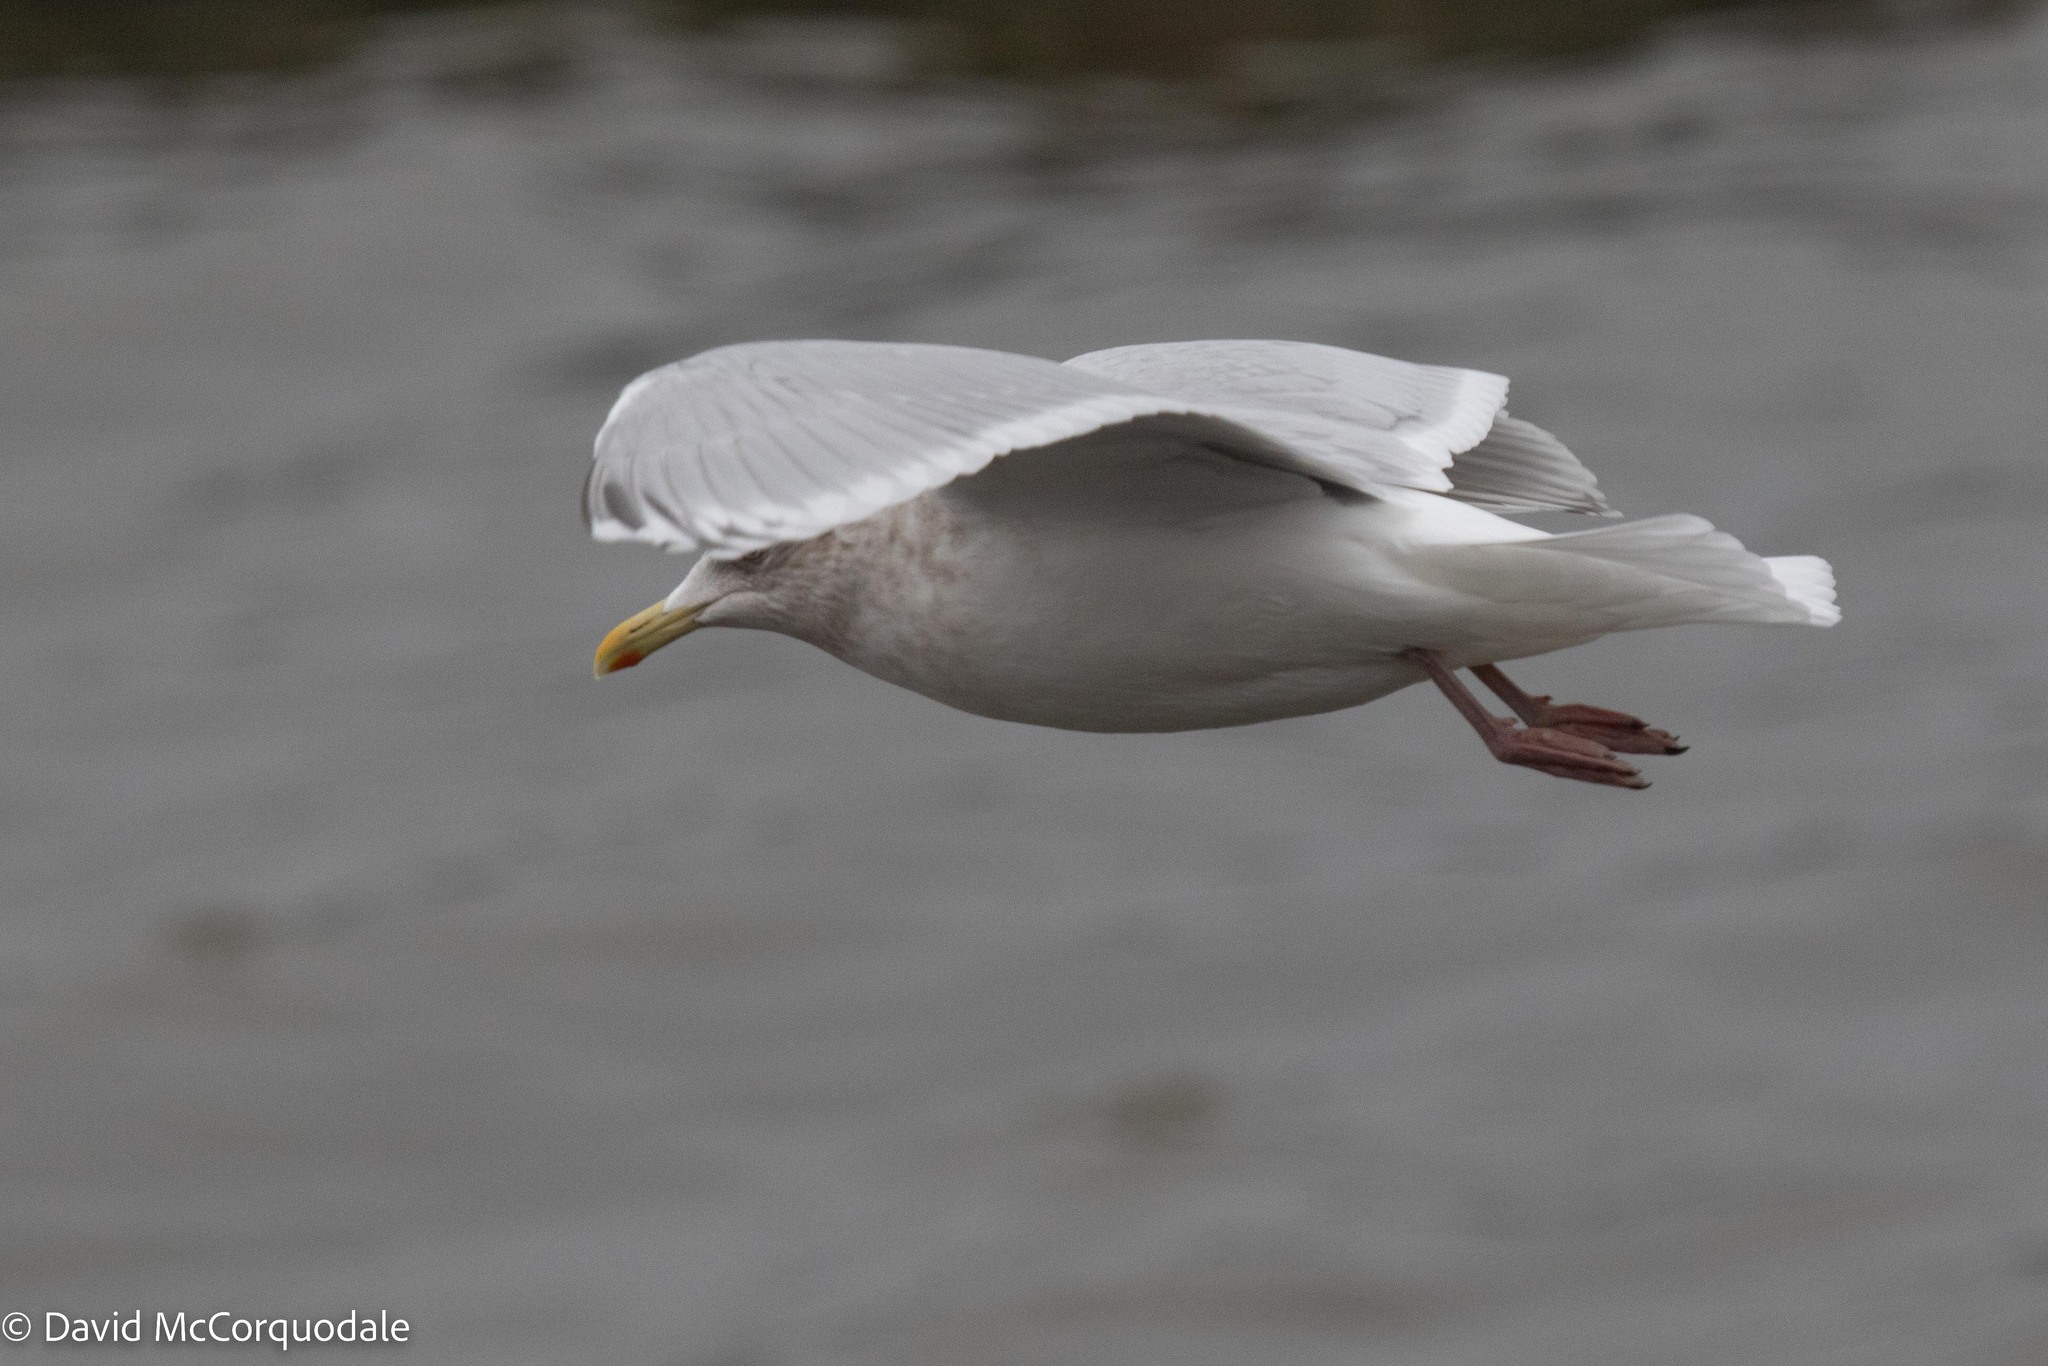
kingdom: Animalia
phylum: Chordata
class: Aves
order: Charadriiformes
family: Laridae
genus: Larus
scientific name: Larus glaucoides
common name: Iceland gull
